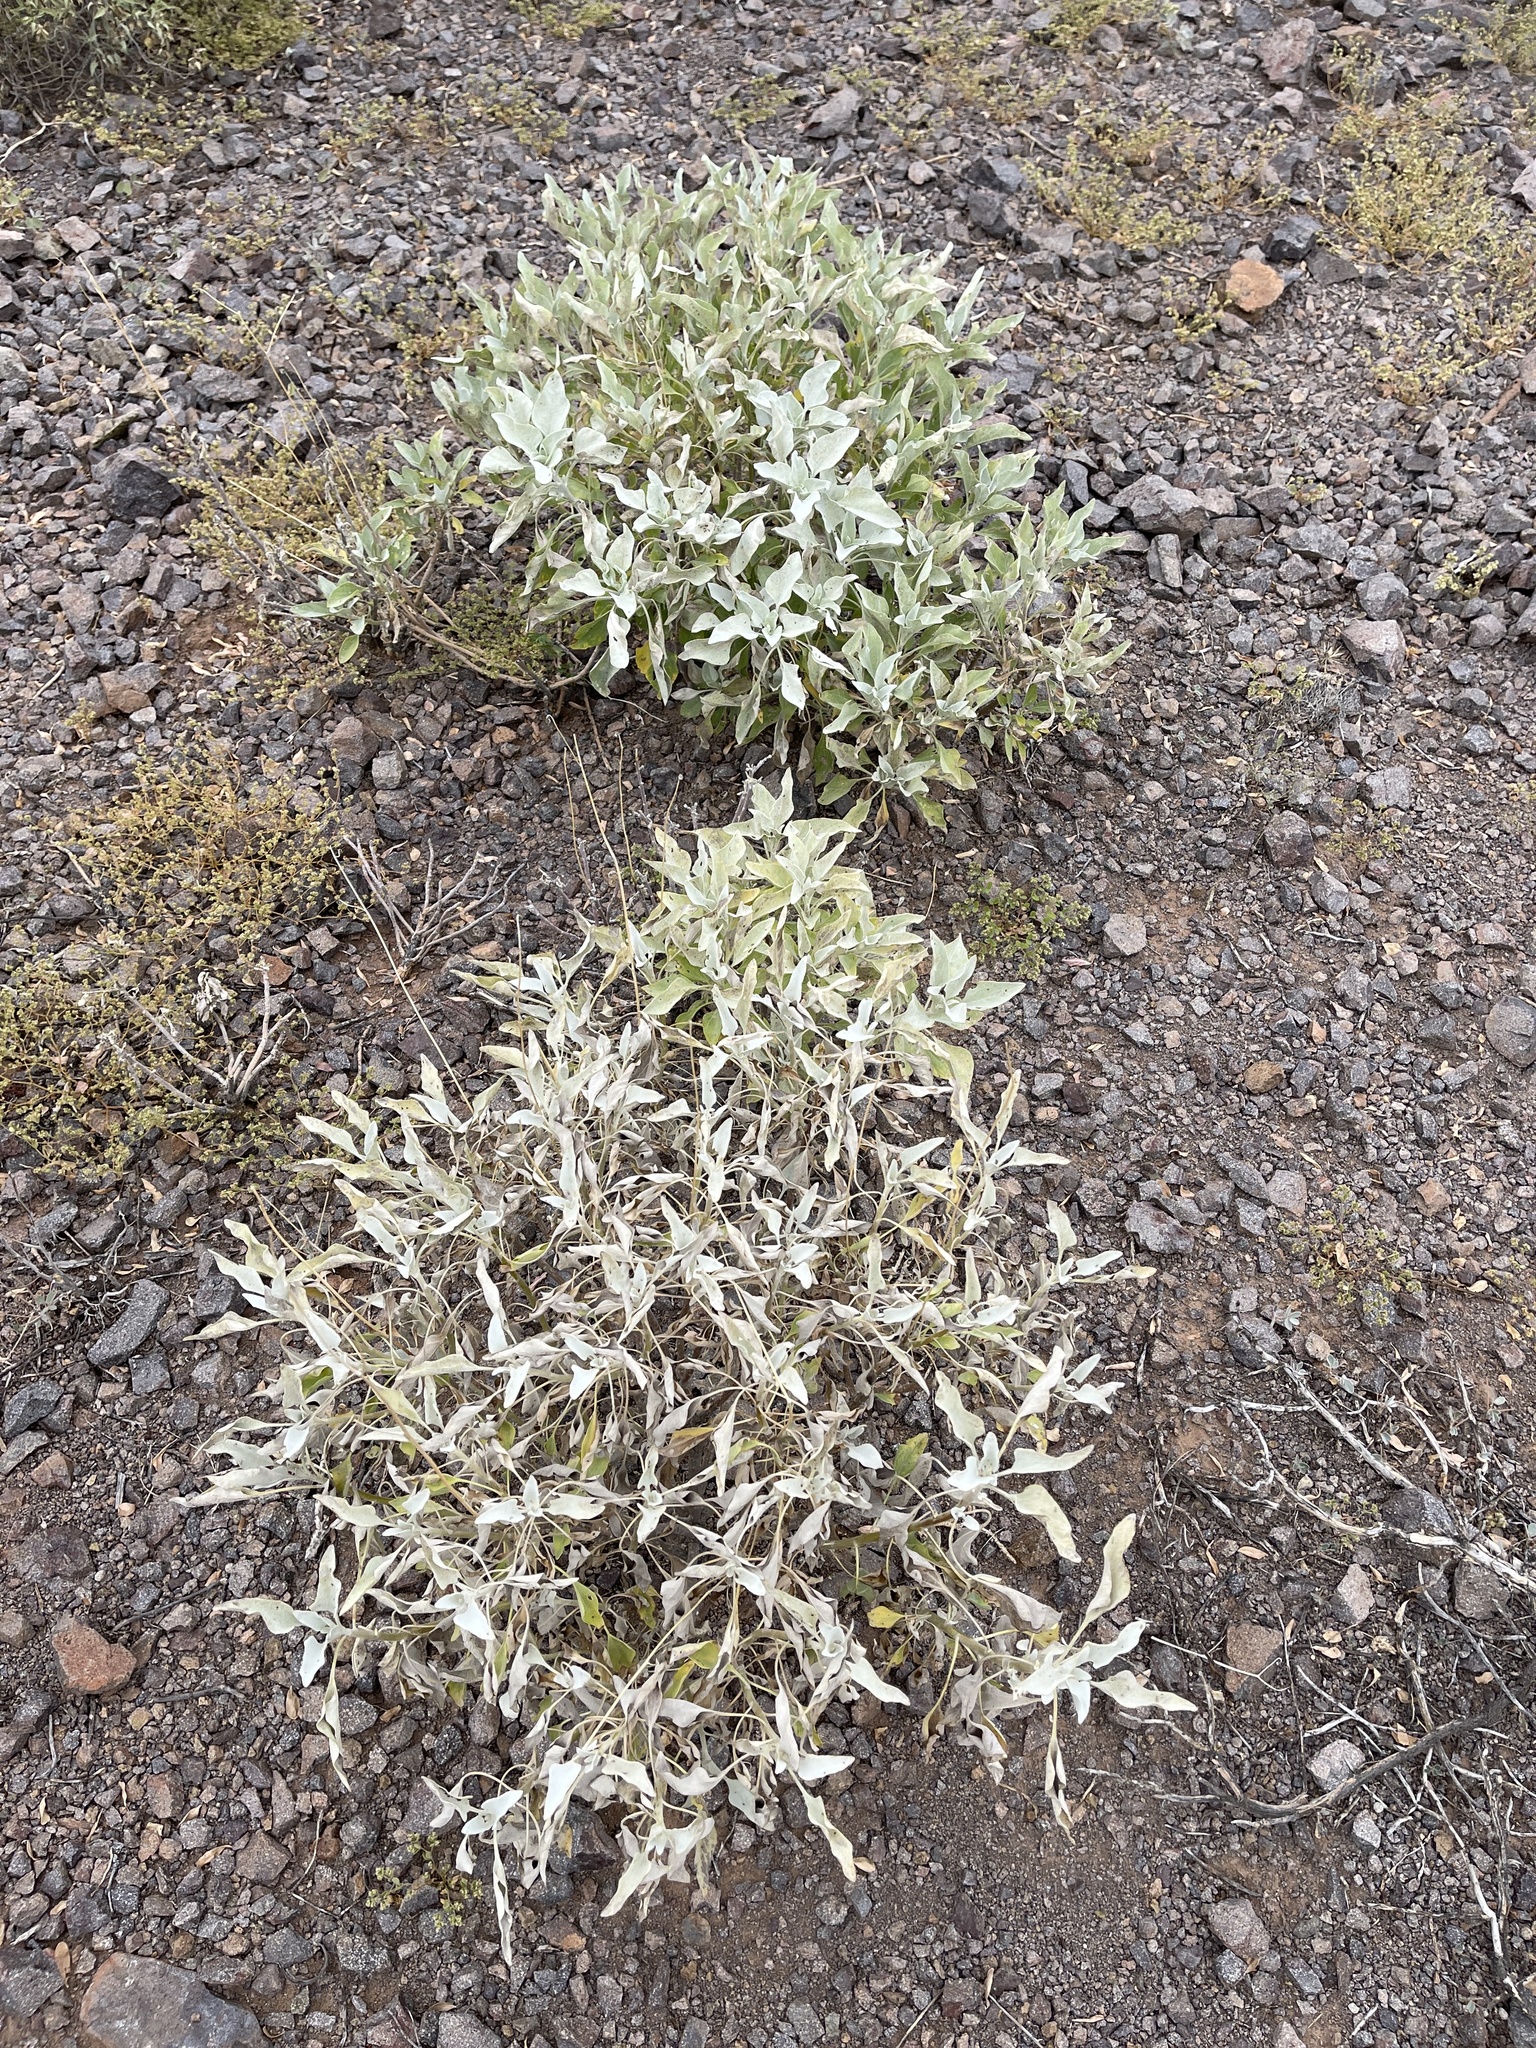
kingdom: Plantae
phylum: Tracheophyta
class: Magnoliopsida
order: Asterales
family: Asteraceae
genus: Encelia
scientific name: Encelia farinosa
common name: Brittlebush
